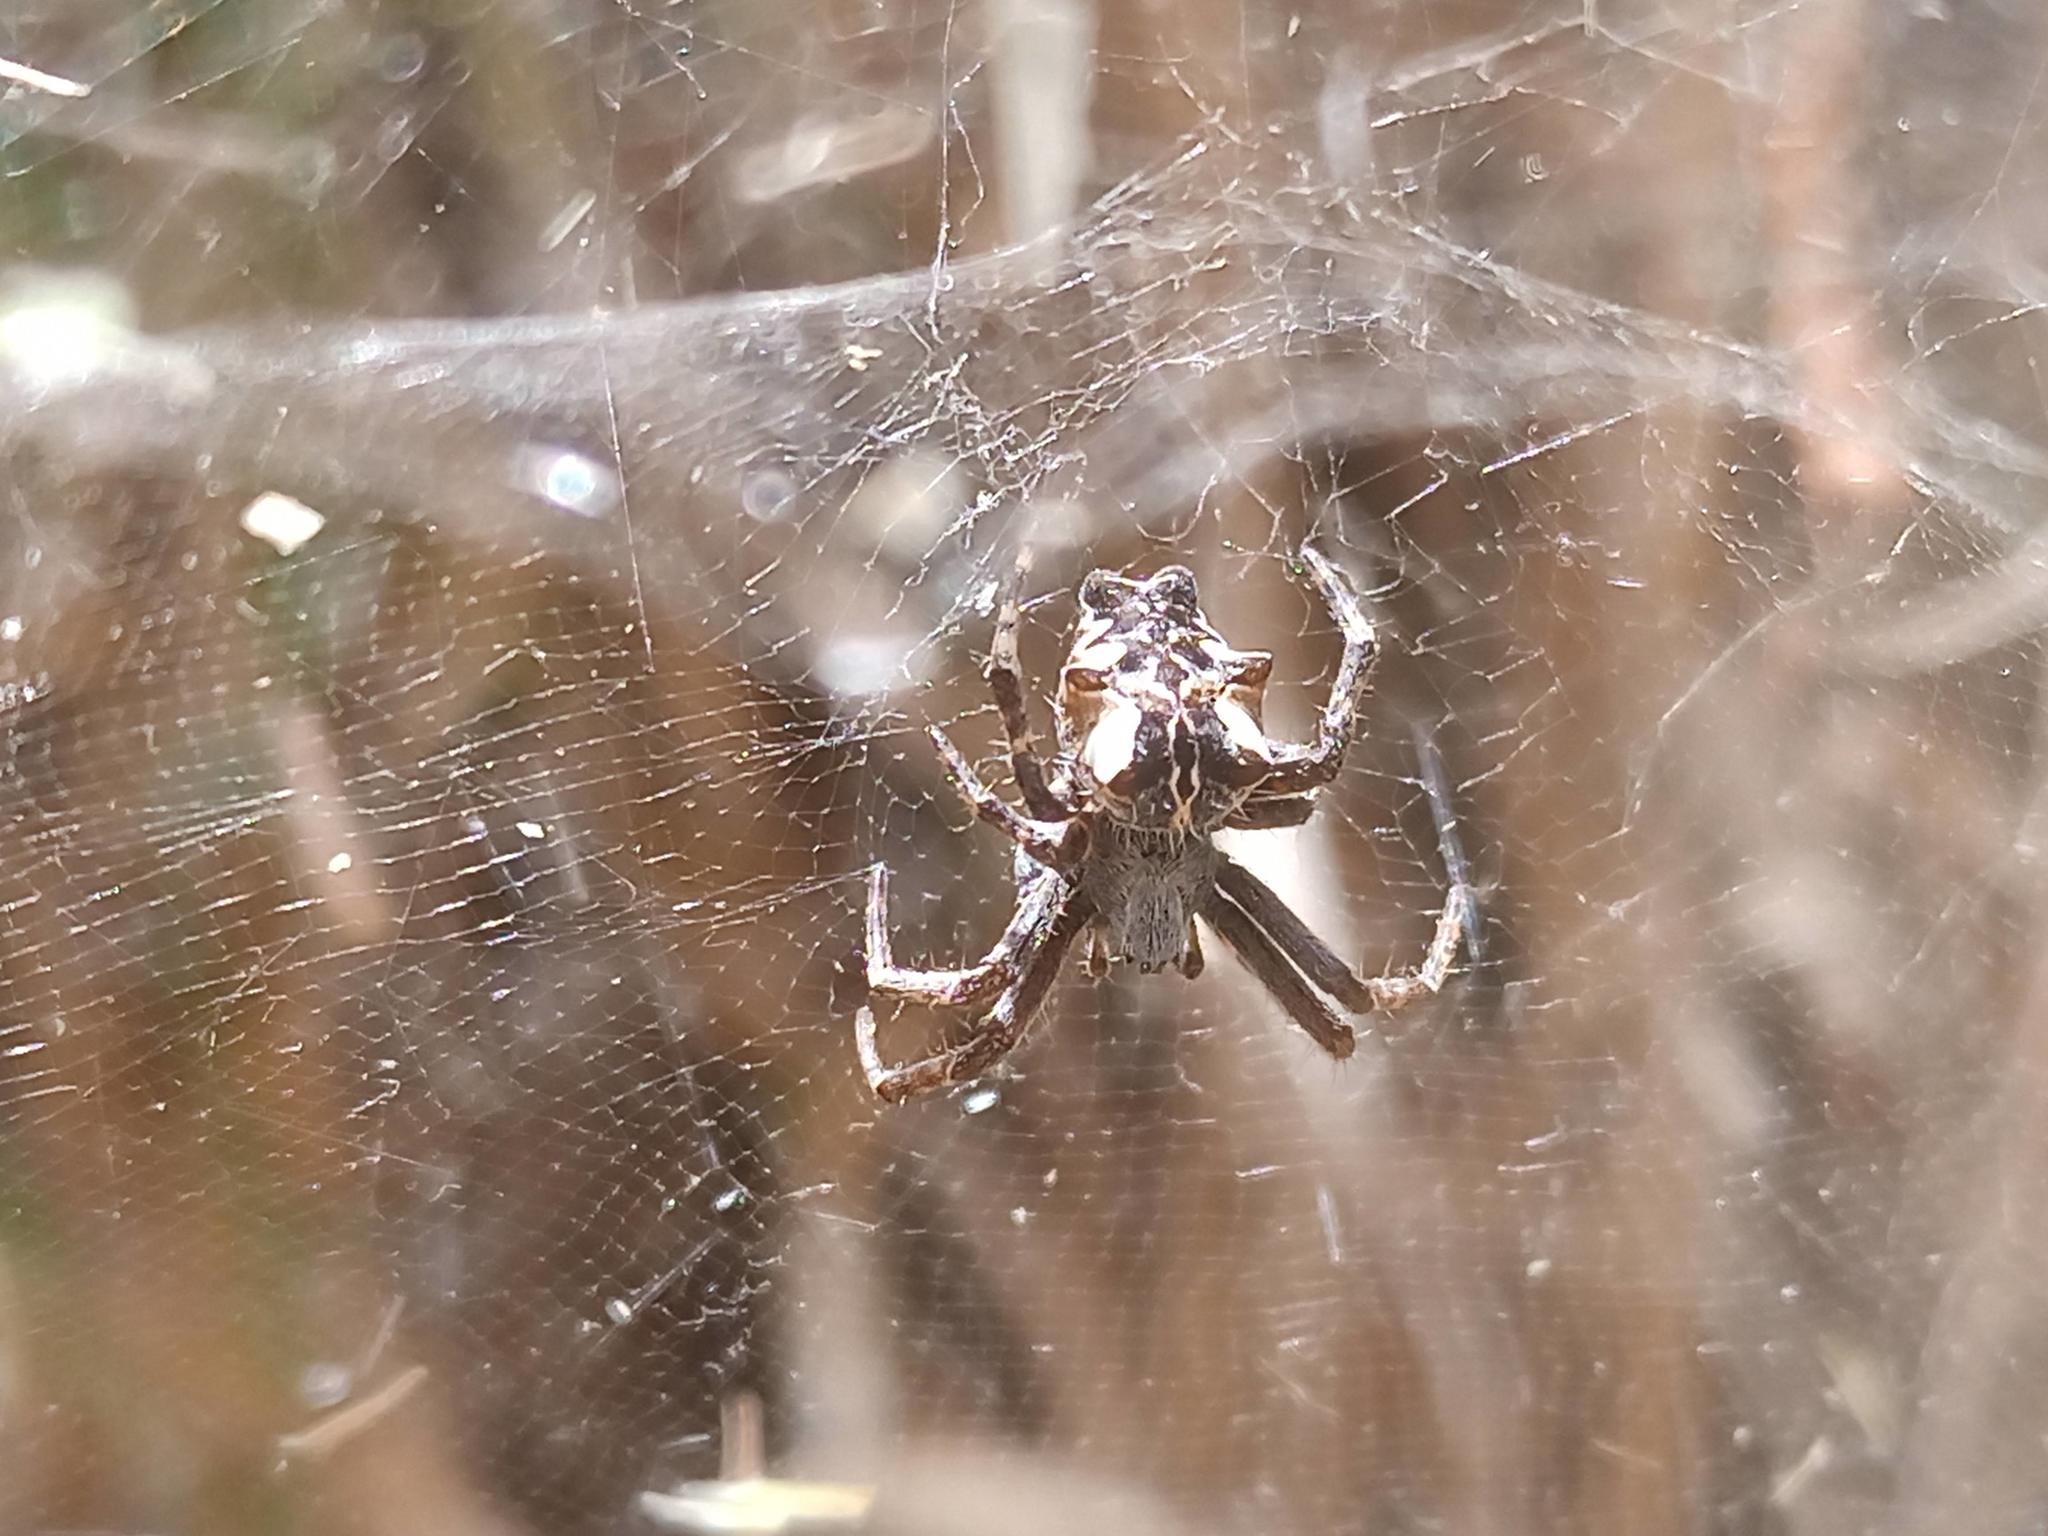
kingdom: Animalia
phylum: Arthropoda
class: Arachnida
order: Araneae
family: Araneidae
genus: Cyrtophora
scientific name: Cyrtophora citricola
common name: Orb weavers
